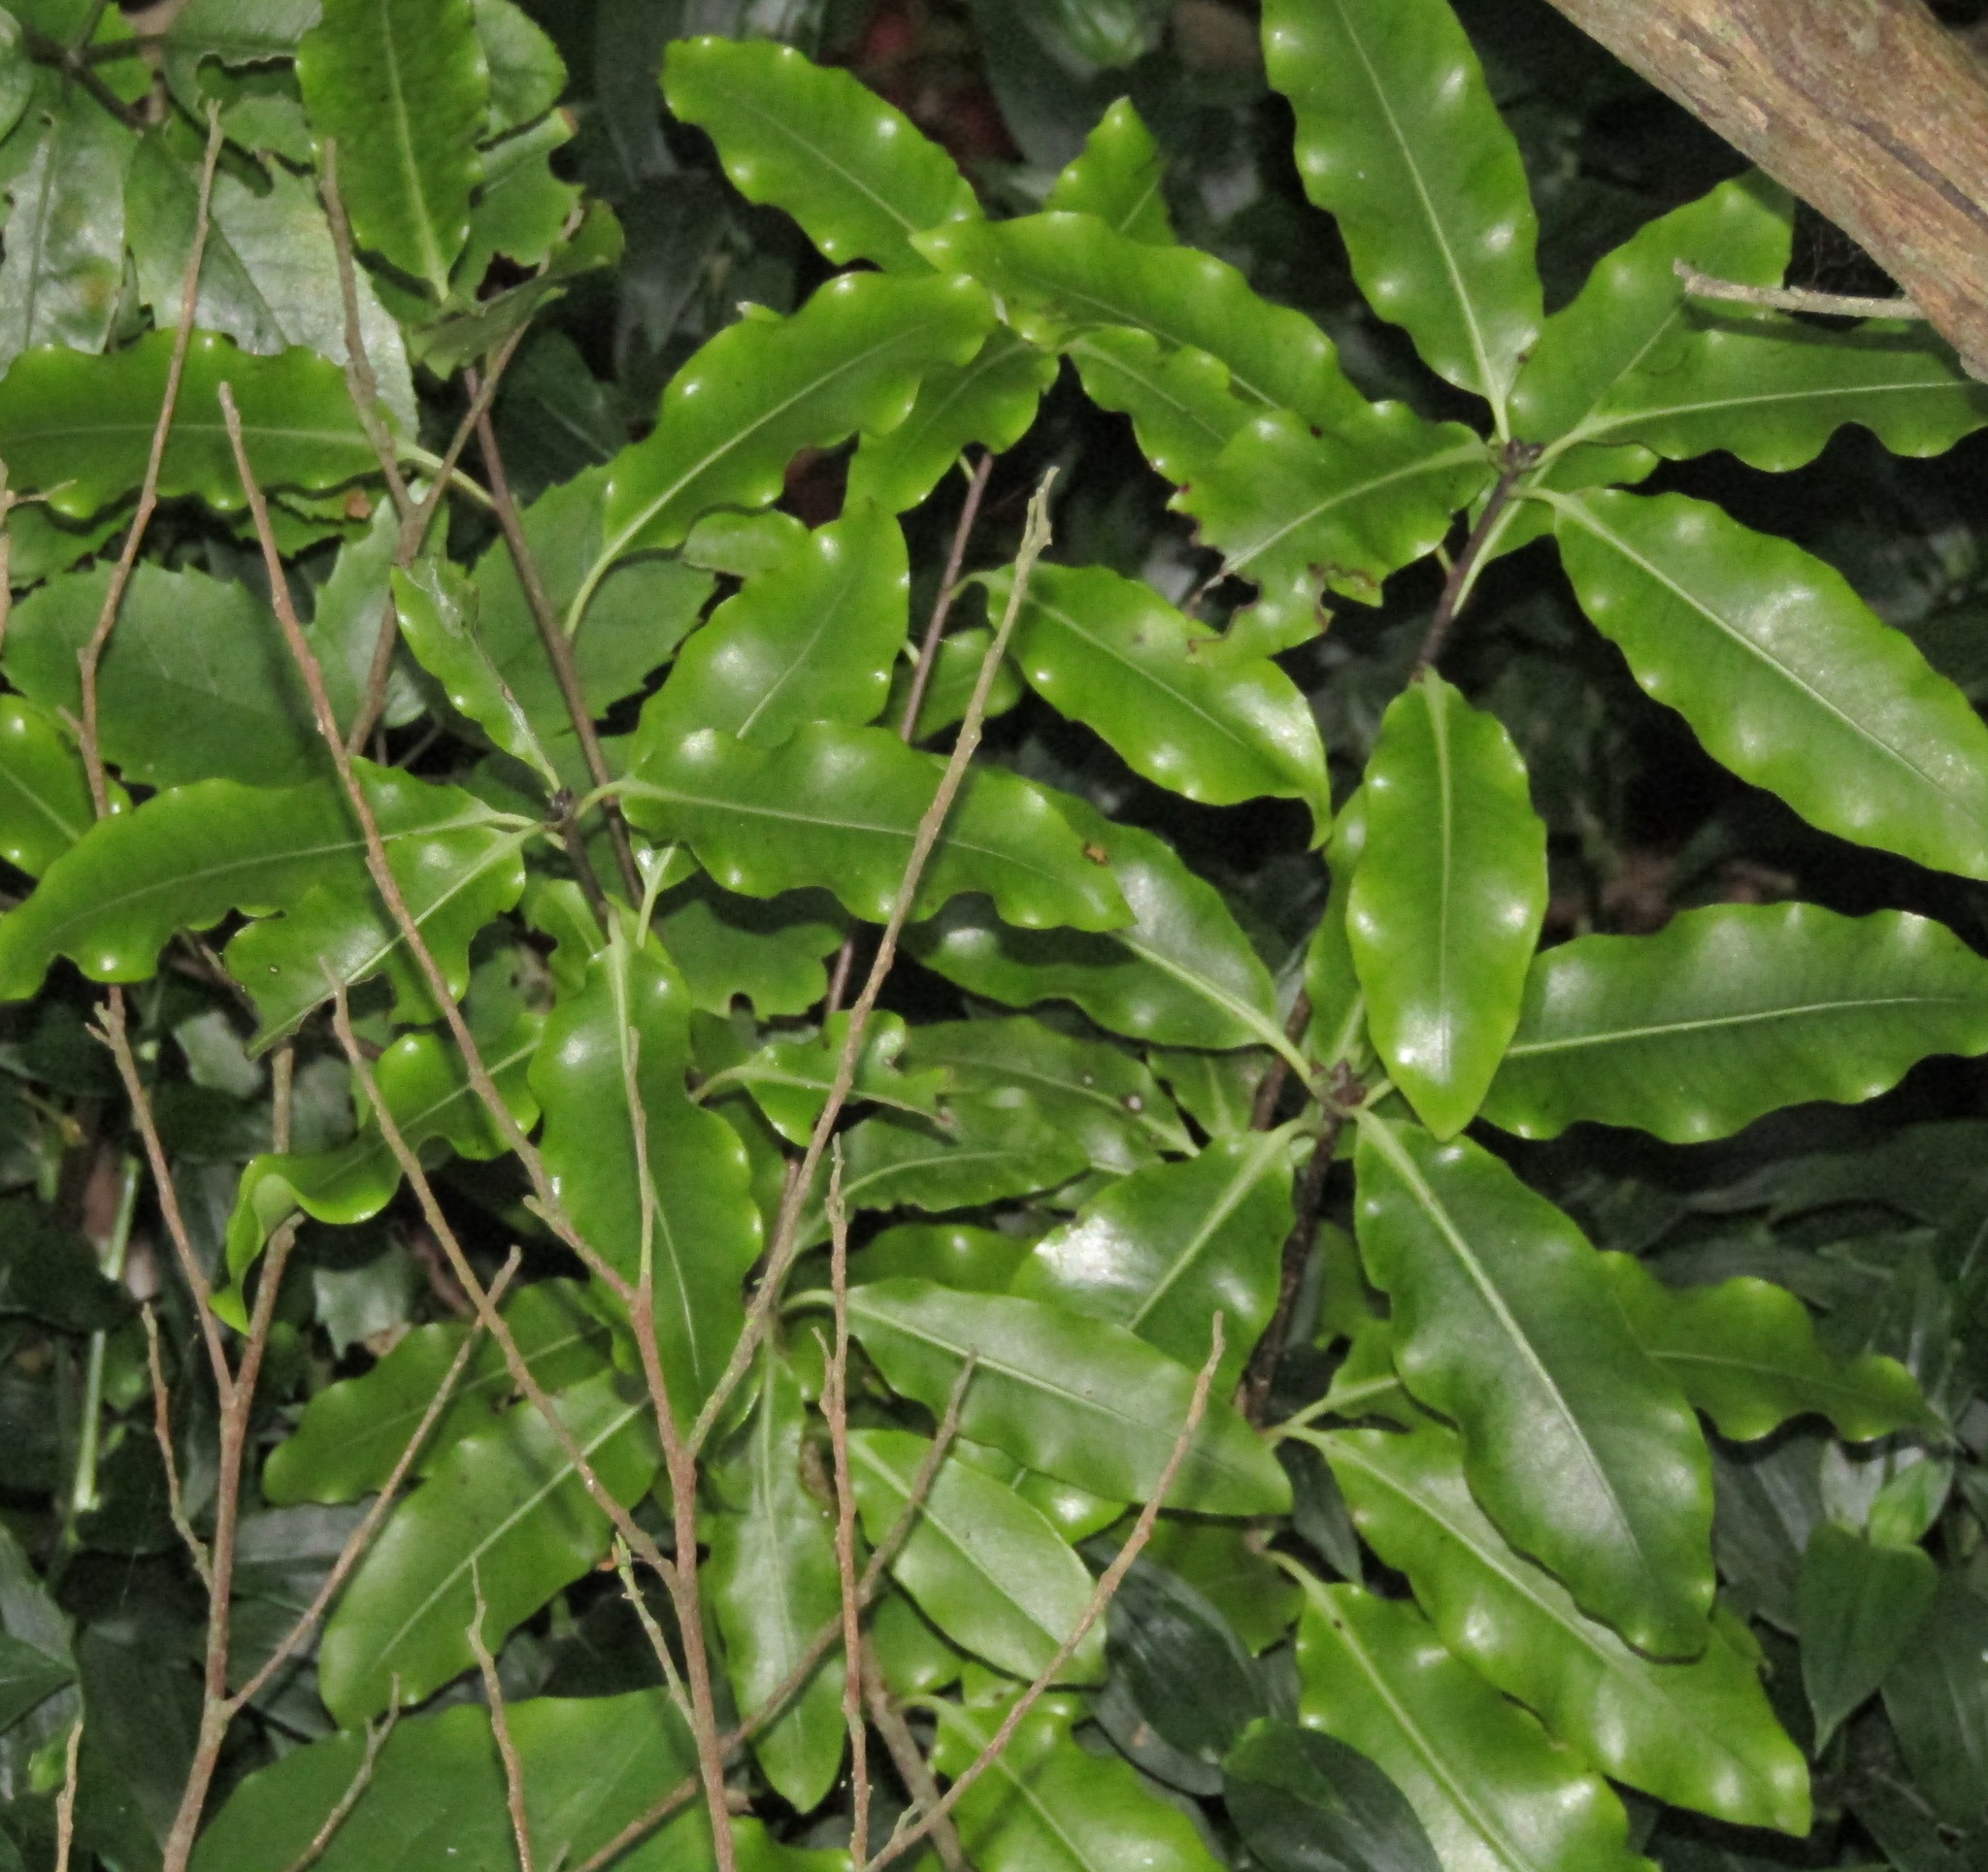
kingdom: Plantae
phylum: Tracheophyta
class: Magnoliopsida
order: Apiales
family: Pittosporaceae
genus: Pittosporum
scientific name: Pittosporum eugenioides
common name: Lemonwood
